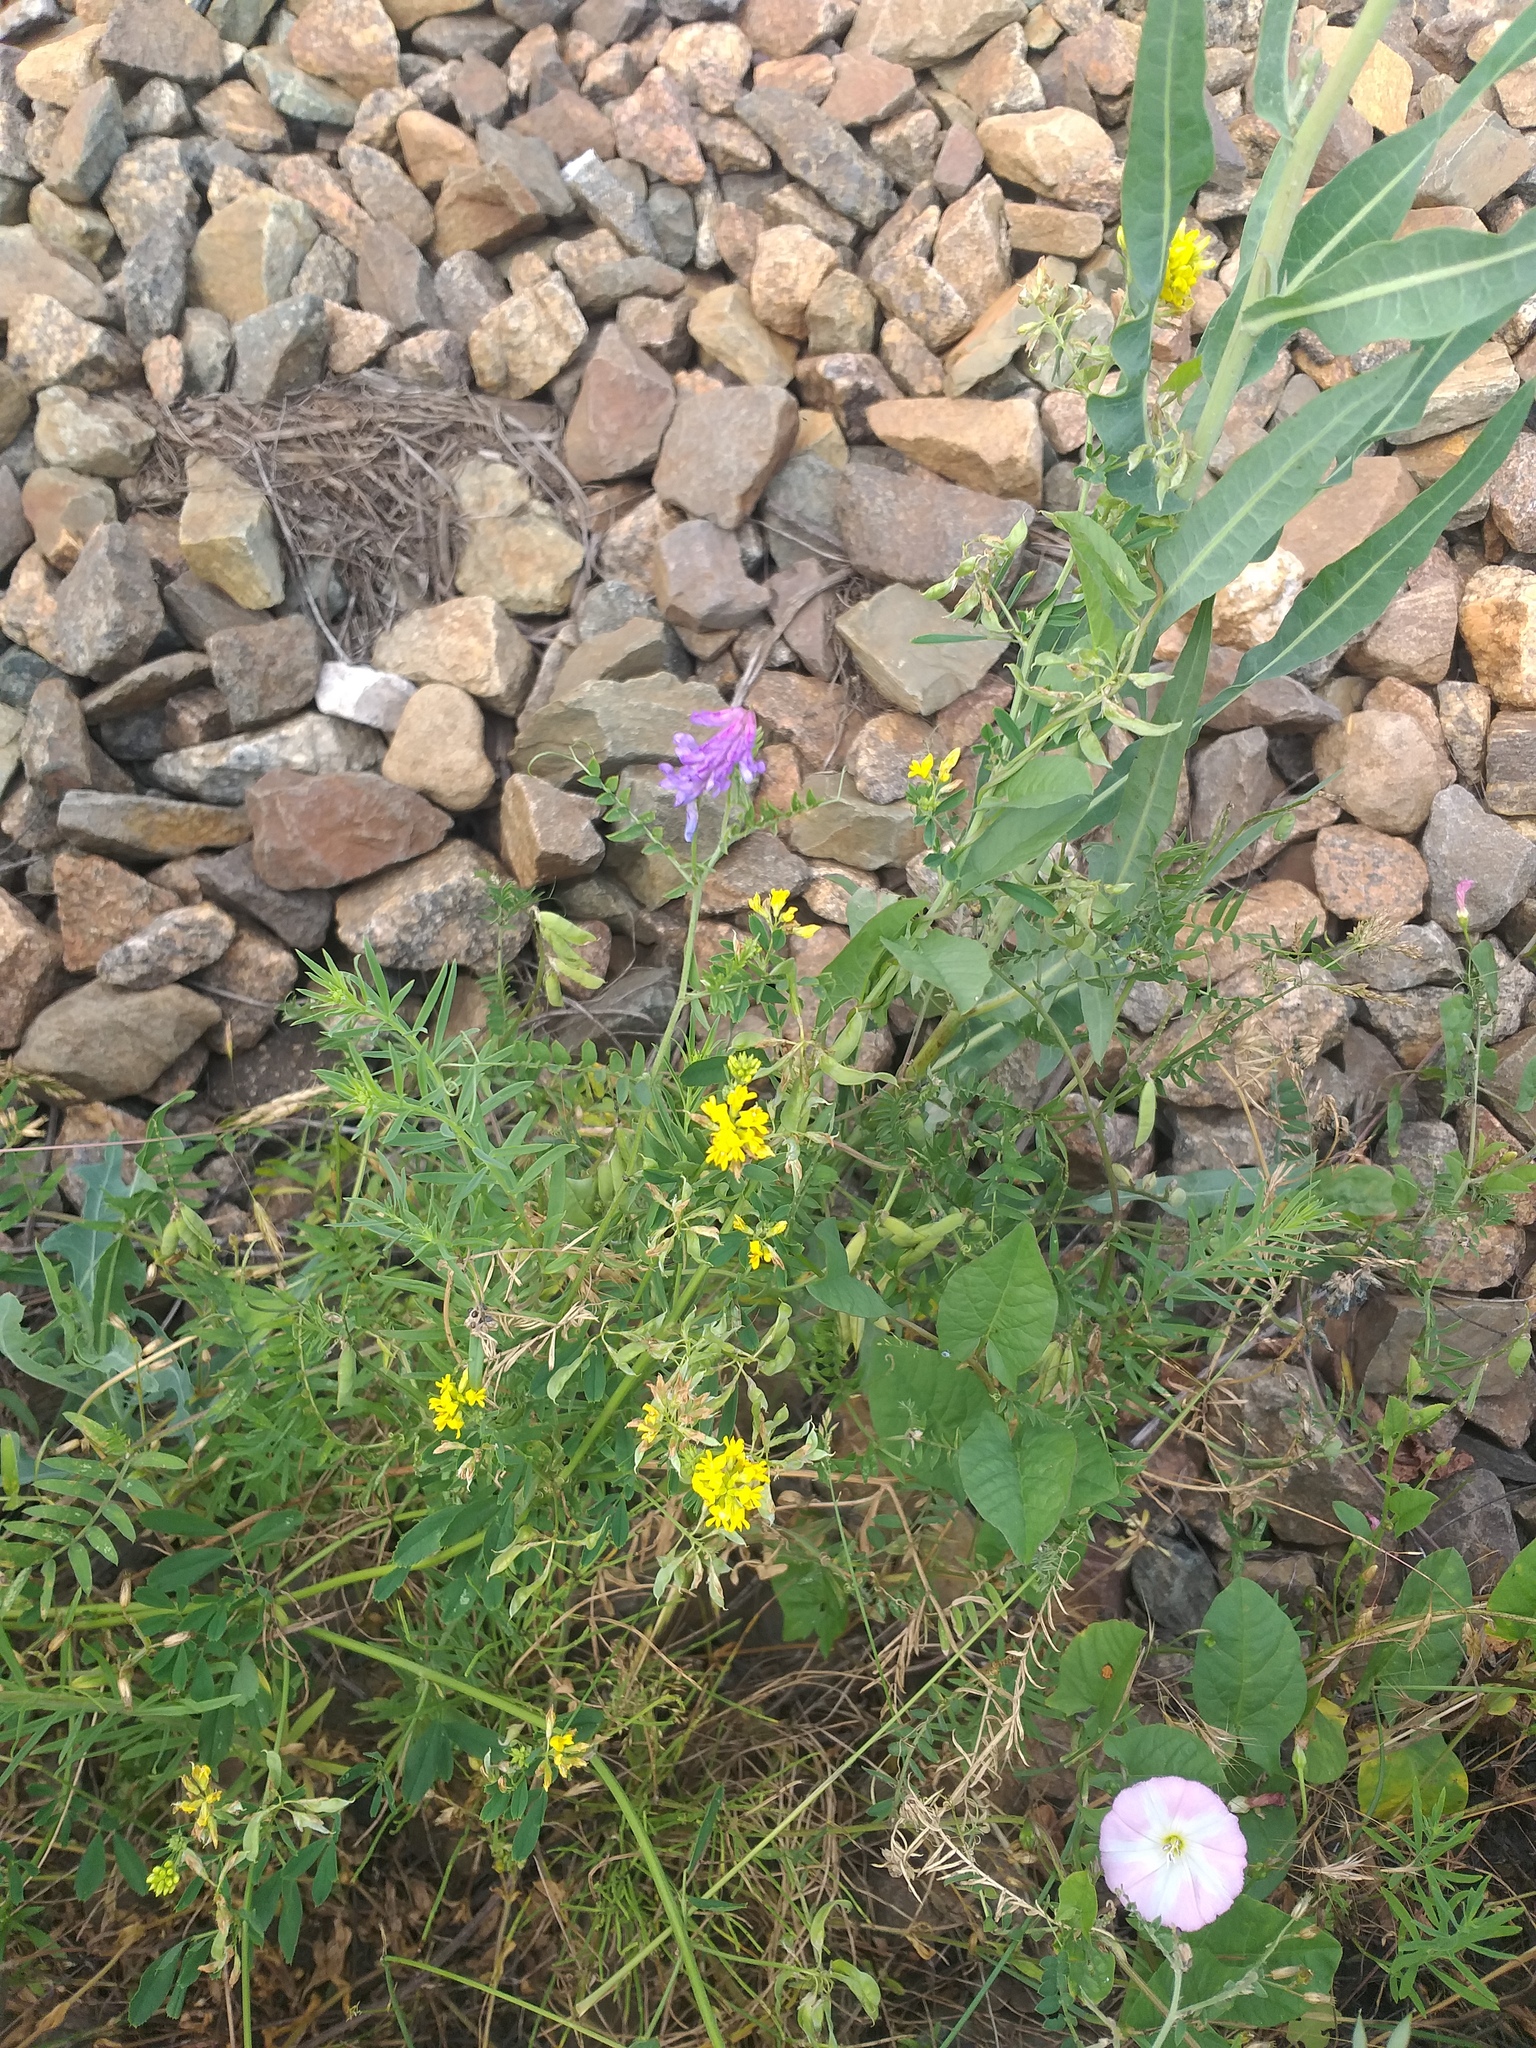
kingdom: Plantae
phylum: Tracheophyta
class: Magnoliopsida
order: Fabales
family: Fabaceae
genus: Medicago
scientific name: Medicago falcata
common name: Sickle medick
